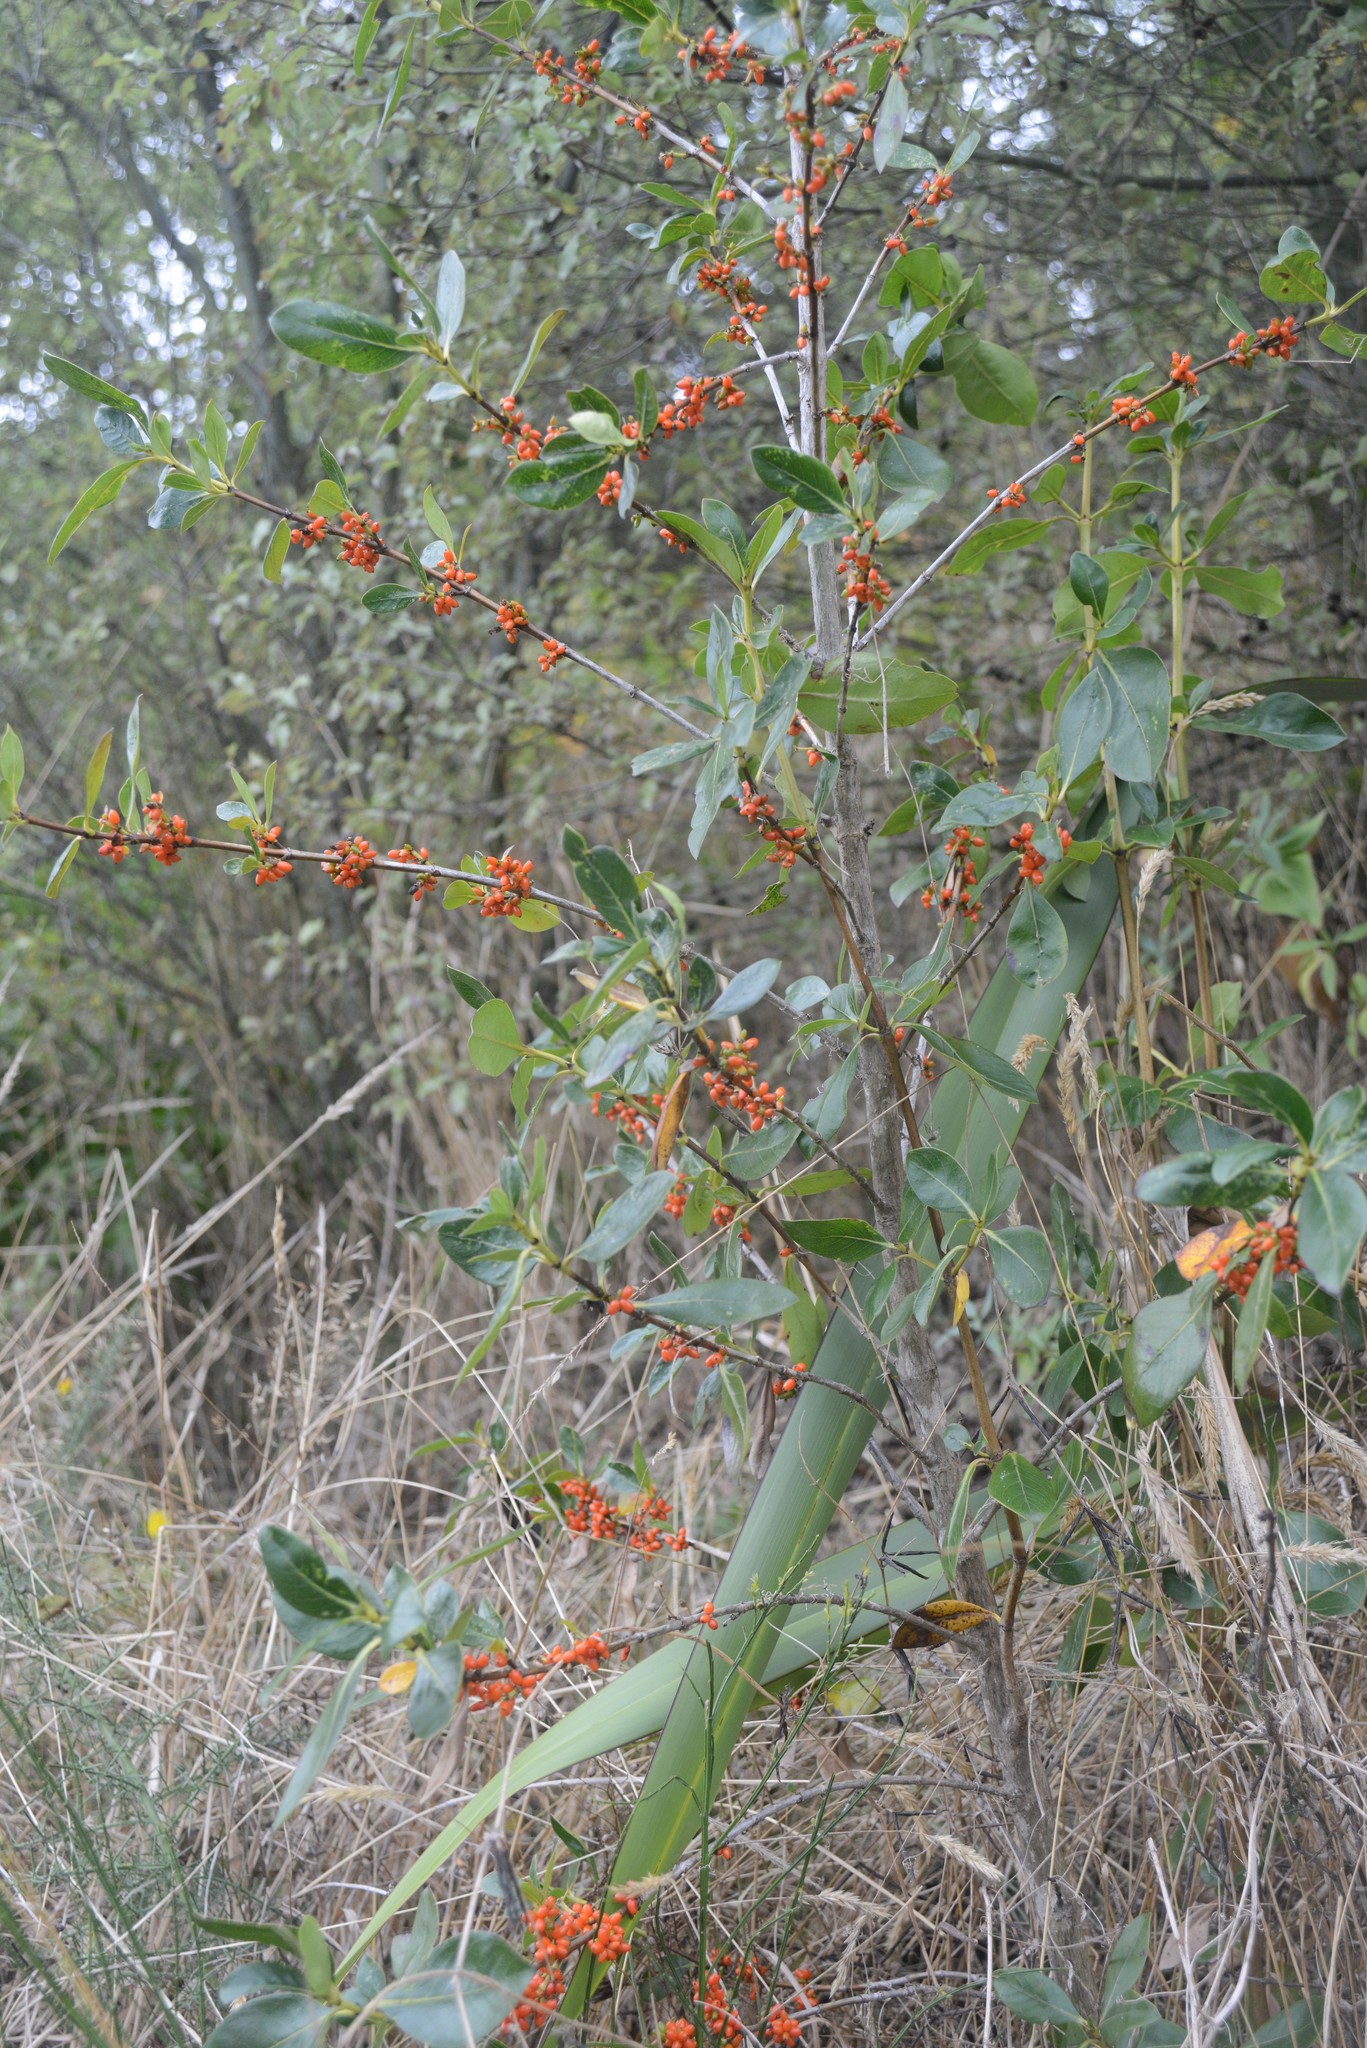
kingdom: Plantae
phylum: Tracheophyta
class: Magnoliopsida
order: Gentianales
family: Rubiaceae
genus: Coprosma
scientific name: Coprosma robusta
